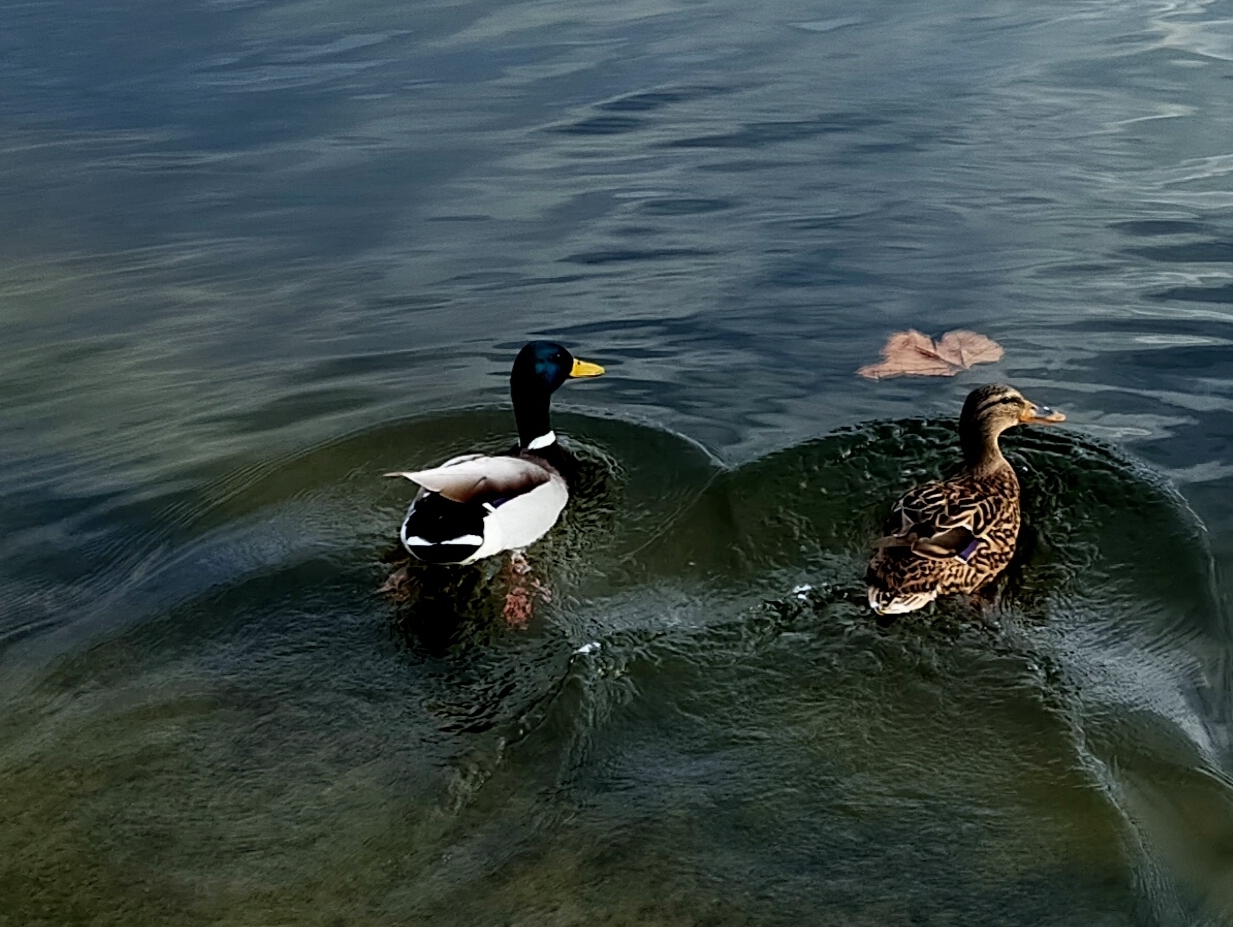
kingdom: Animalia
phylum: Chordata
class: Aves
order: Anseriformes
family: Anatidae
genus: Anas
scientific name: Anas platyrhynchos
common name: Mallard
